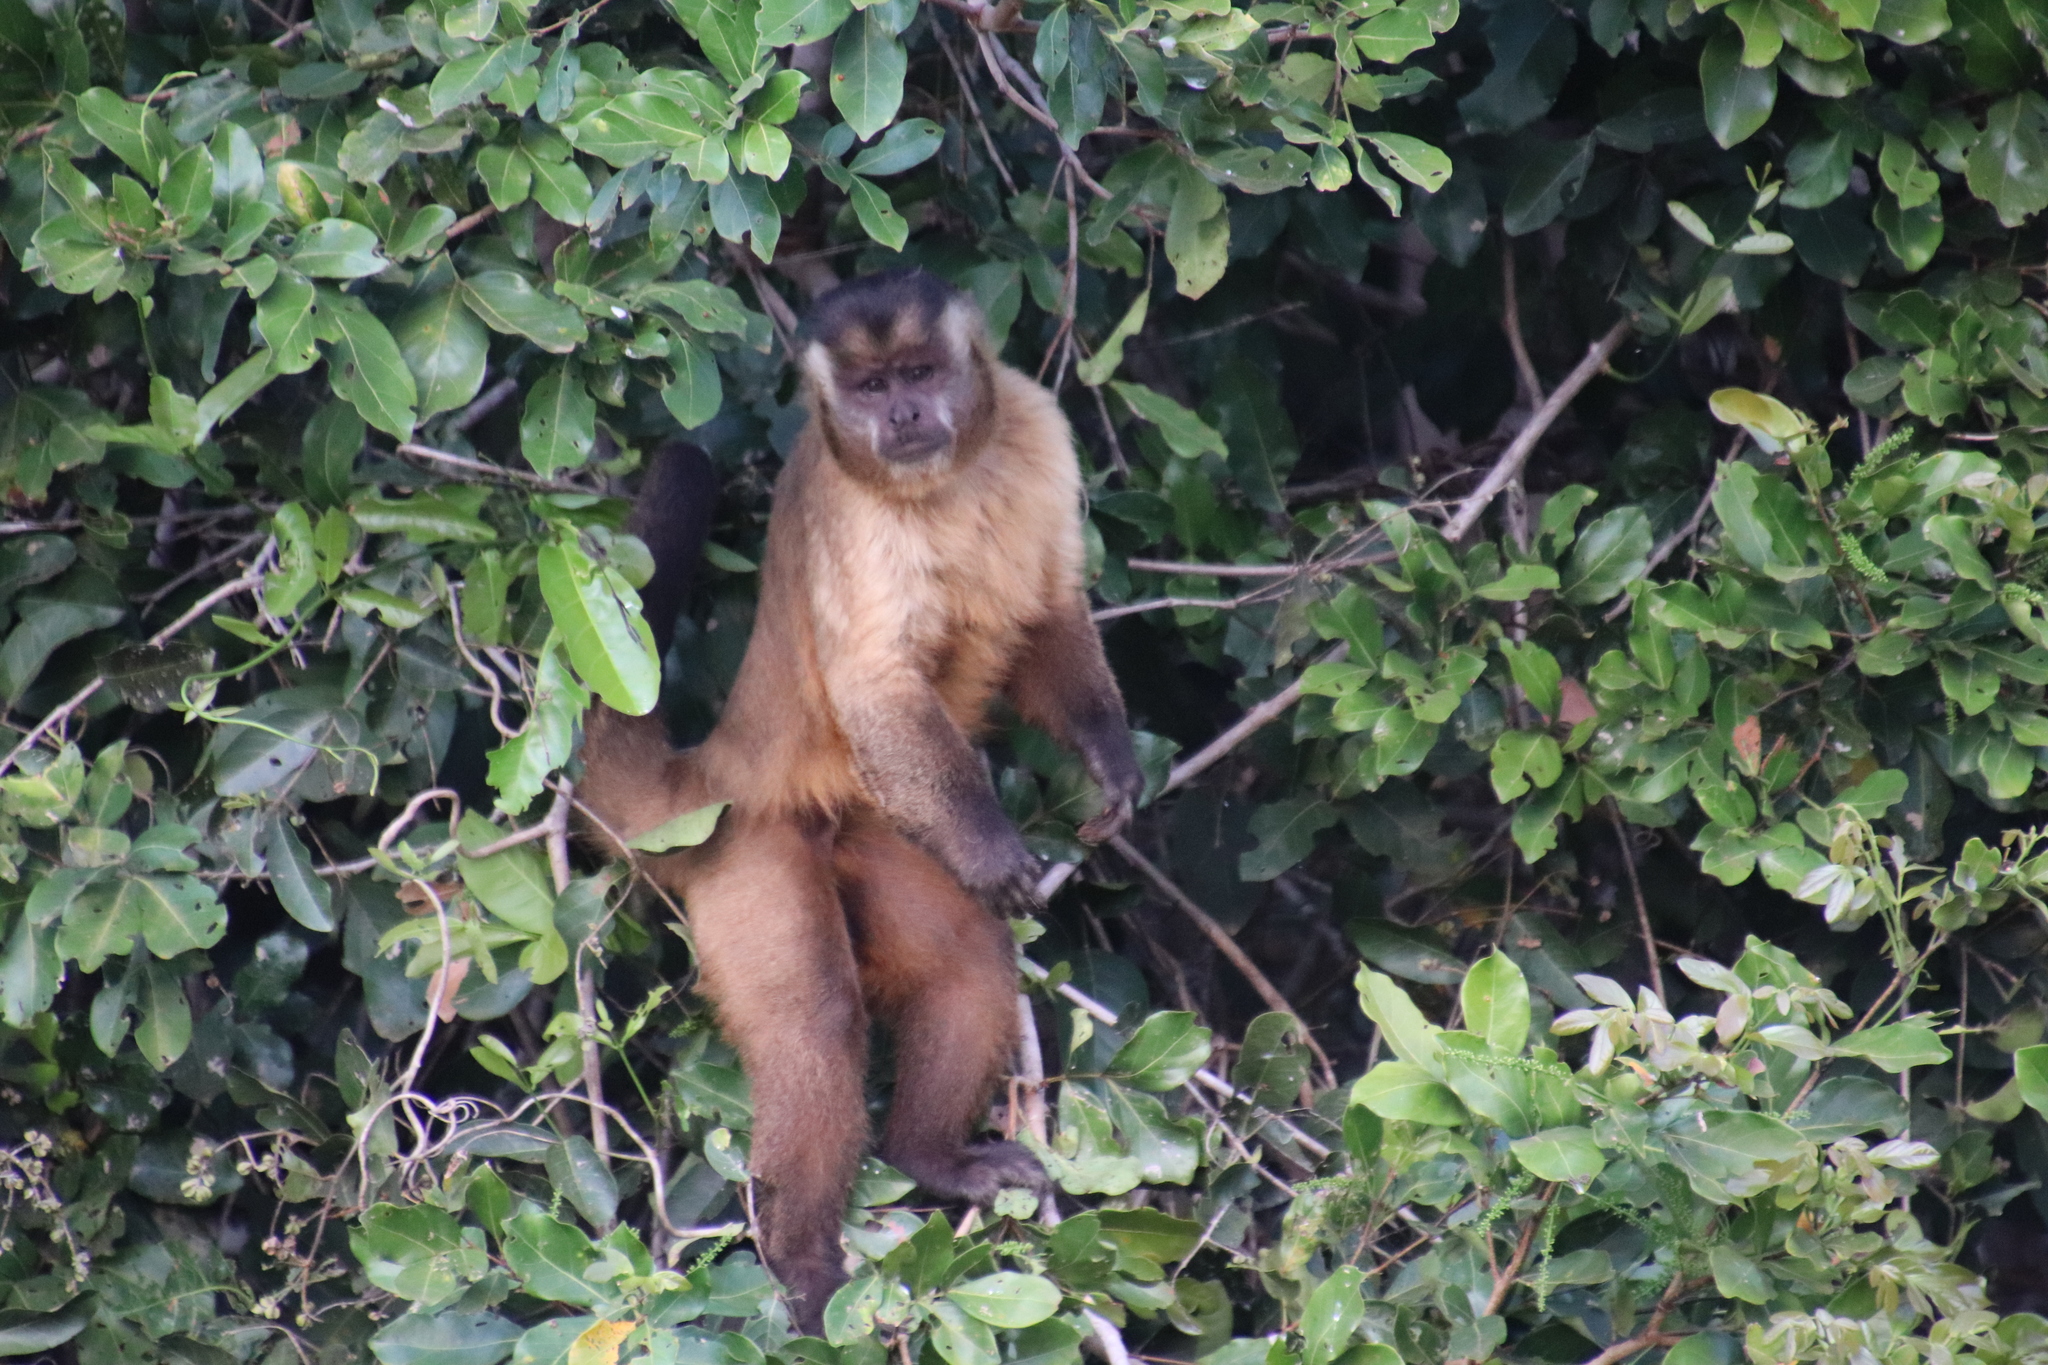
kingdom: Animalia
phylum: Chordata
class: Mammalia
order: Primates
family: Cebidae
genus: Sapajus
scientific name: Sapajus libidinosus
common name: Bearded capuchin
